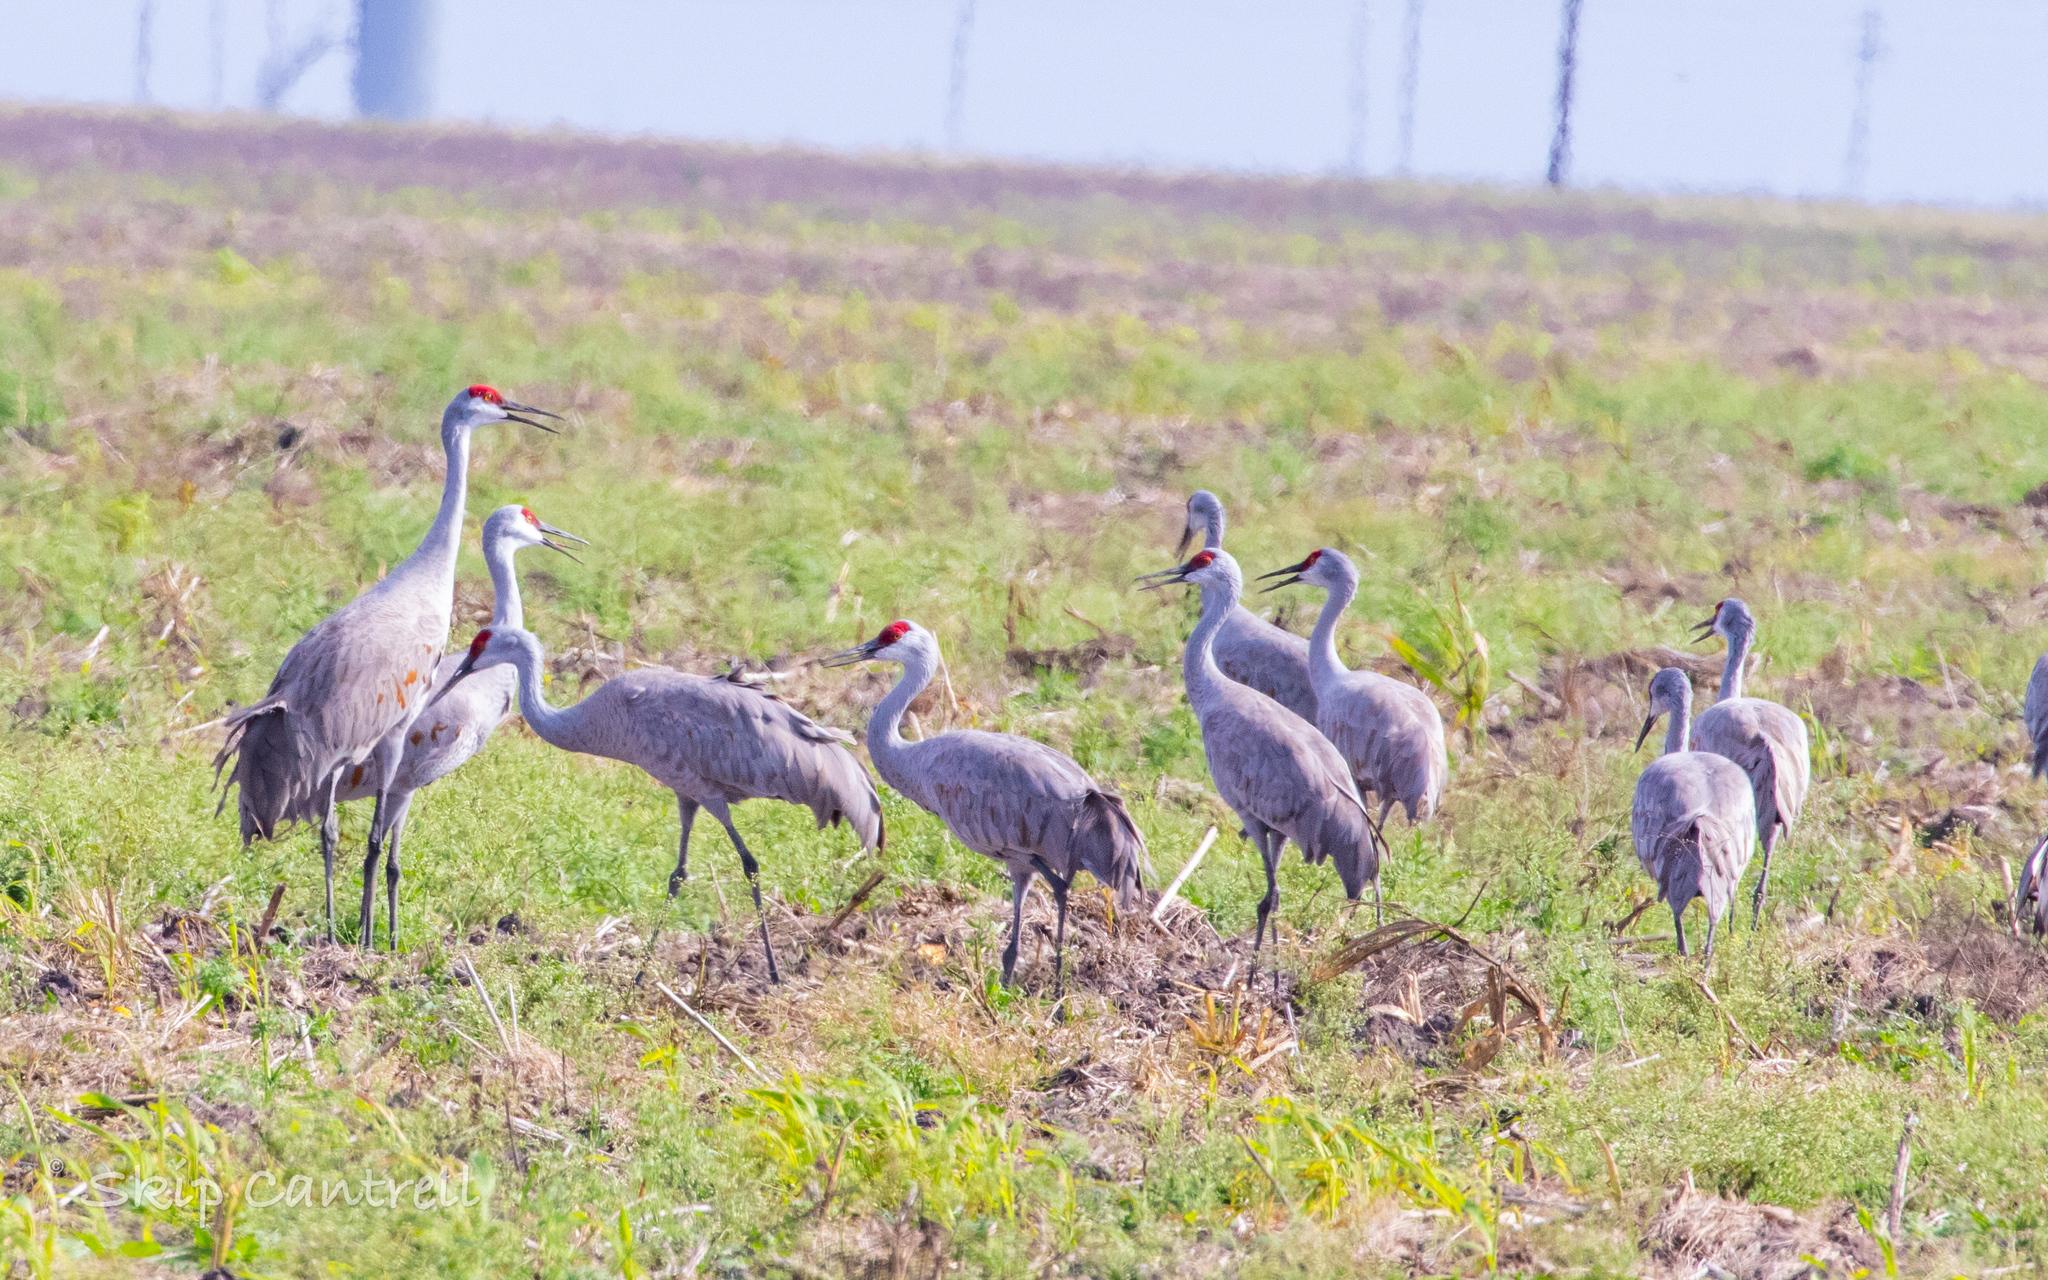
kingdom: Animalia
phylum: Chordata
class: Aves
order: Gruiformes
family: Gruidae
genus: Grus
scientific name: Grus canadensis
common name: Sandhill crane
